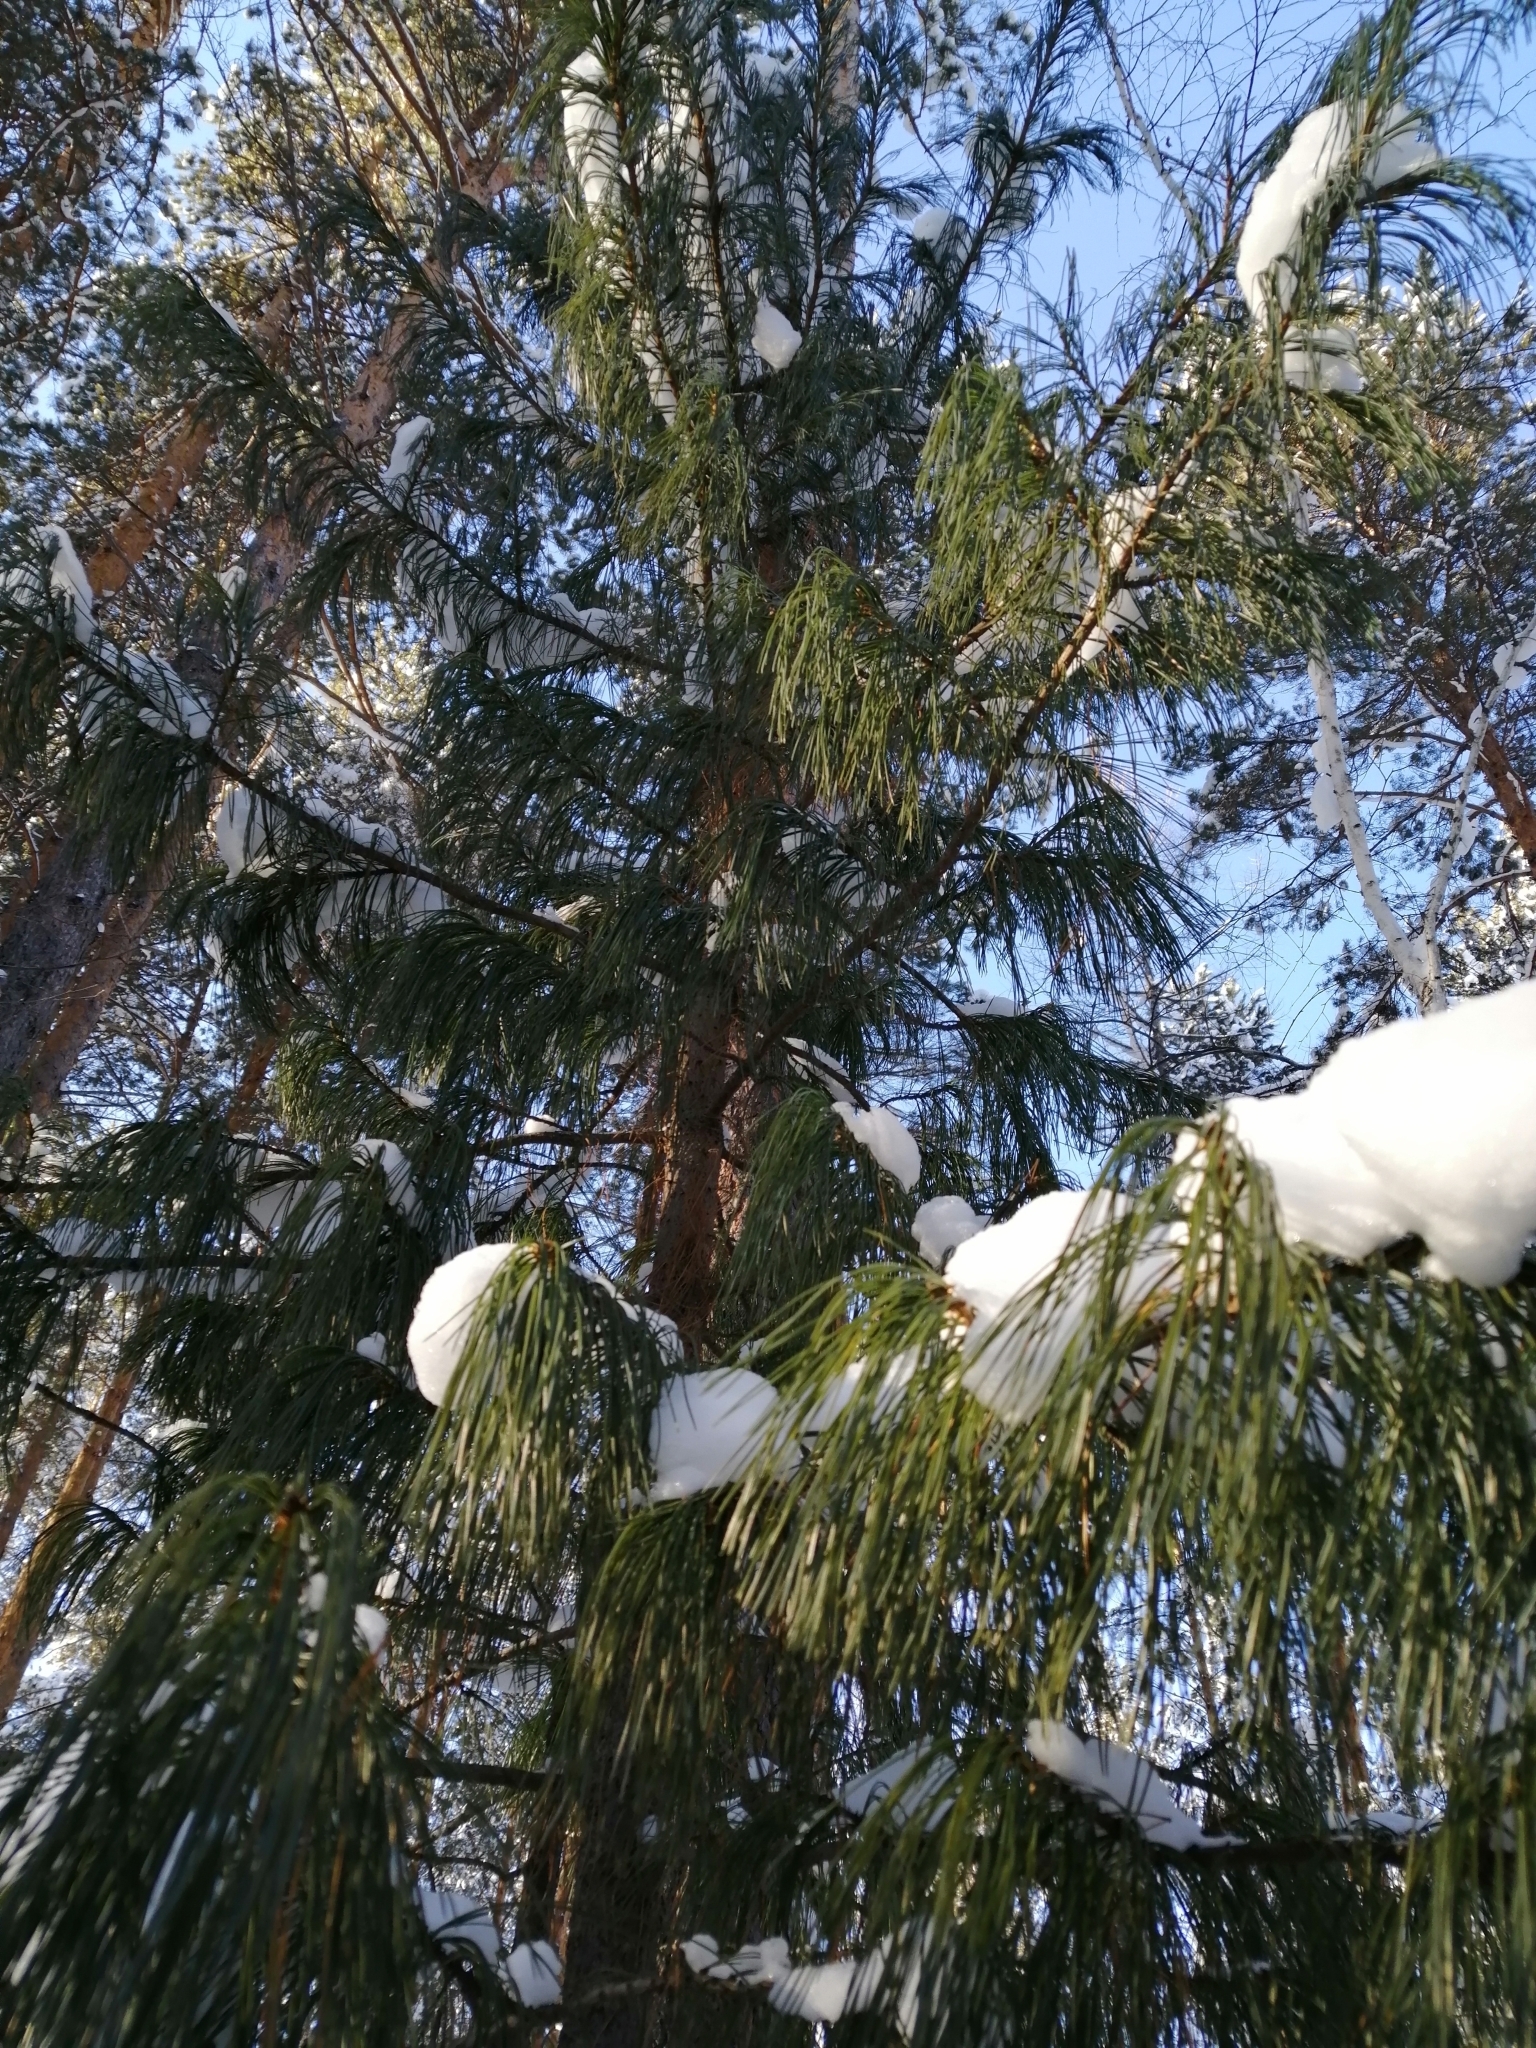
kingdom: Plantae
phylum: Tracheophyta
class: Pinopsida
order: Pinales
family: Pinaceae
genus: Pinus
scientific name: Pinus sibirica
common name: Siberian pine
